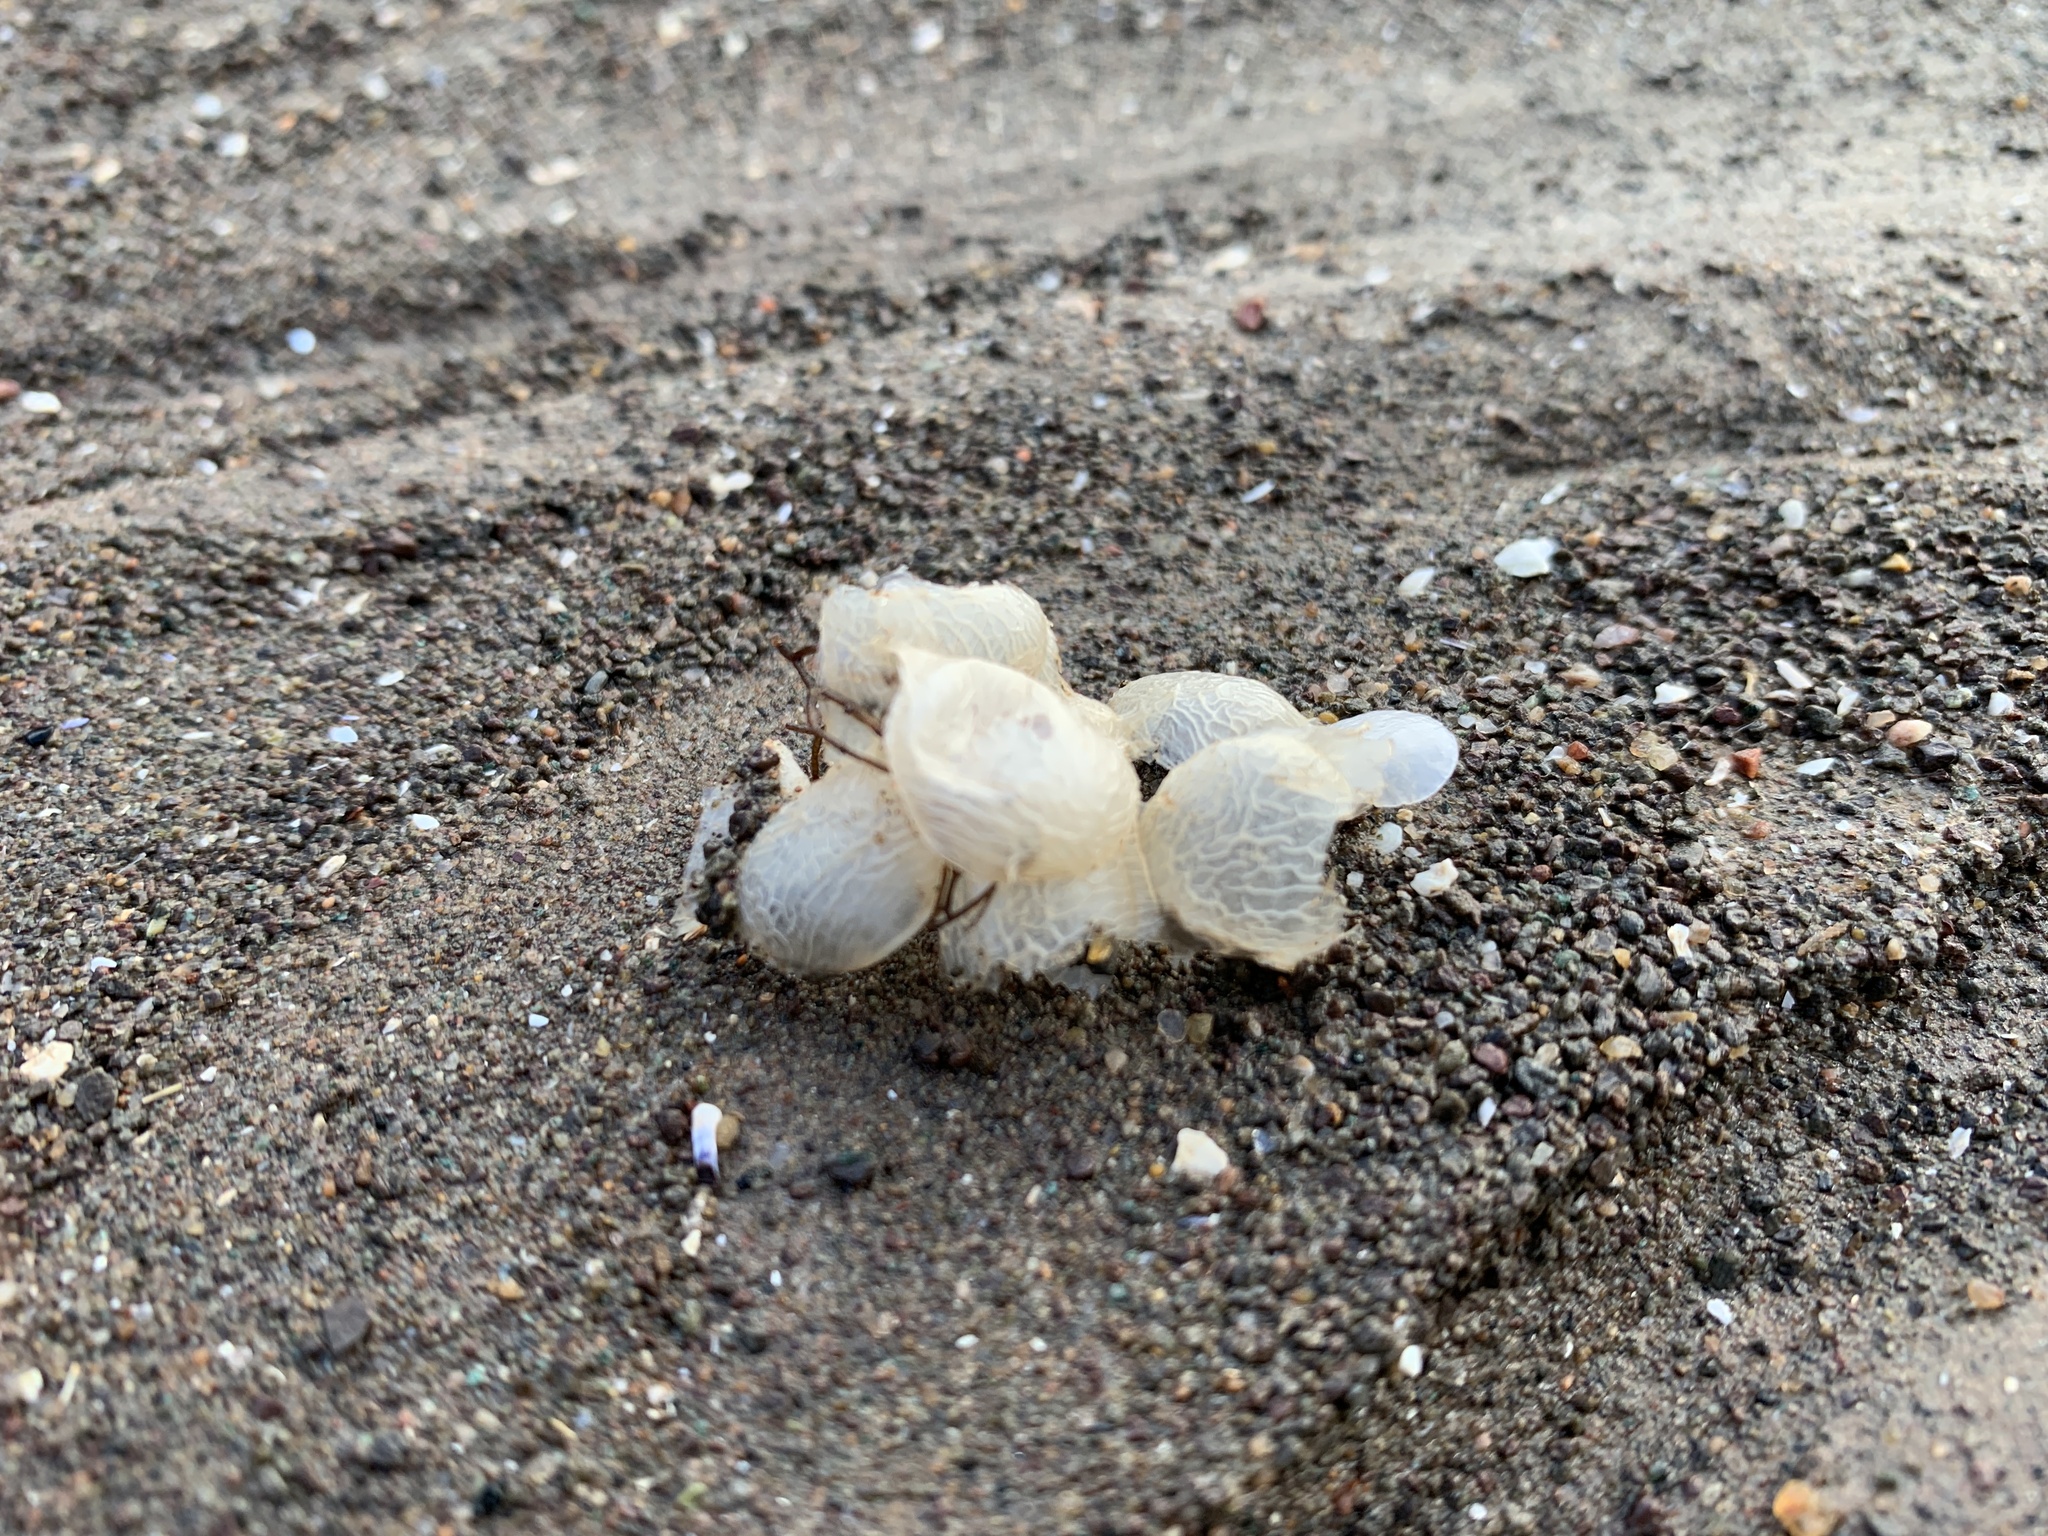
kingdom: Animalia
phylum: Mollusca
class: Gastropoda
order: Neogastropoda
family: Buccinidae
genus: Buccinum
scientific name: Buccinum undatum
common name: Common whelk
